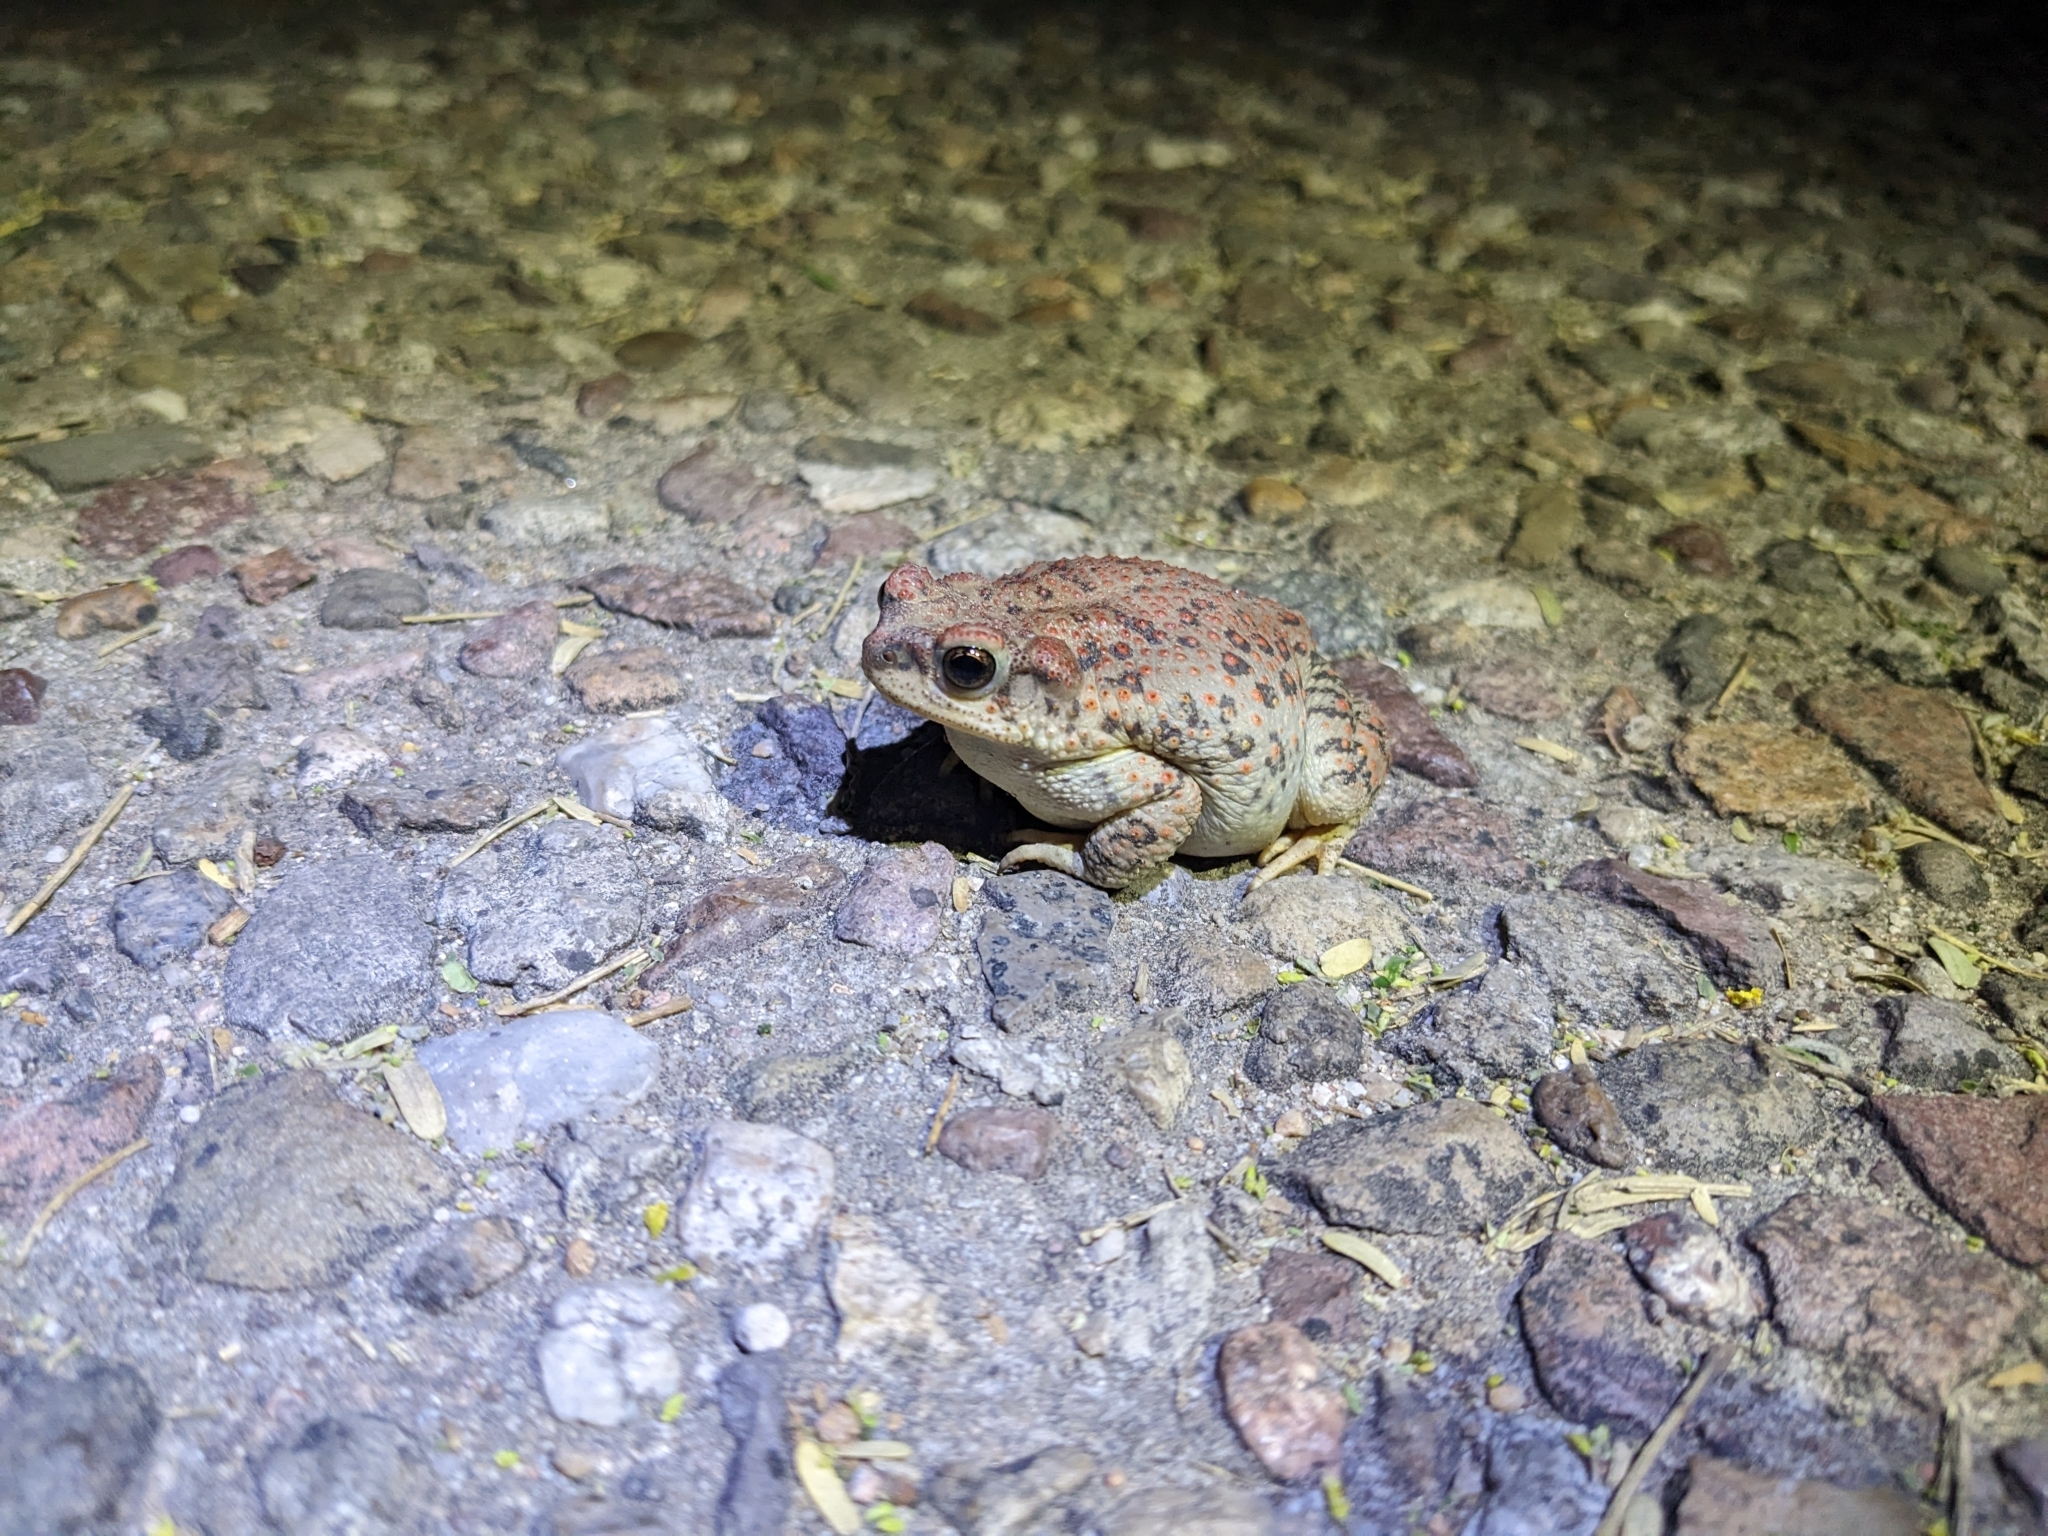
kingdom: Animalia
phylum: Chordata
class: Amphibia
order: Anura
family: Bufonidae
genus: Anaxyrus
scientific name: Anaxyrus punctatus
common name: Red-spotted toad
